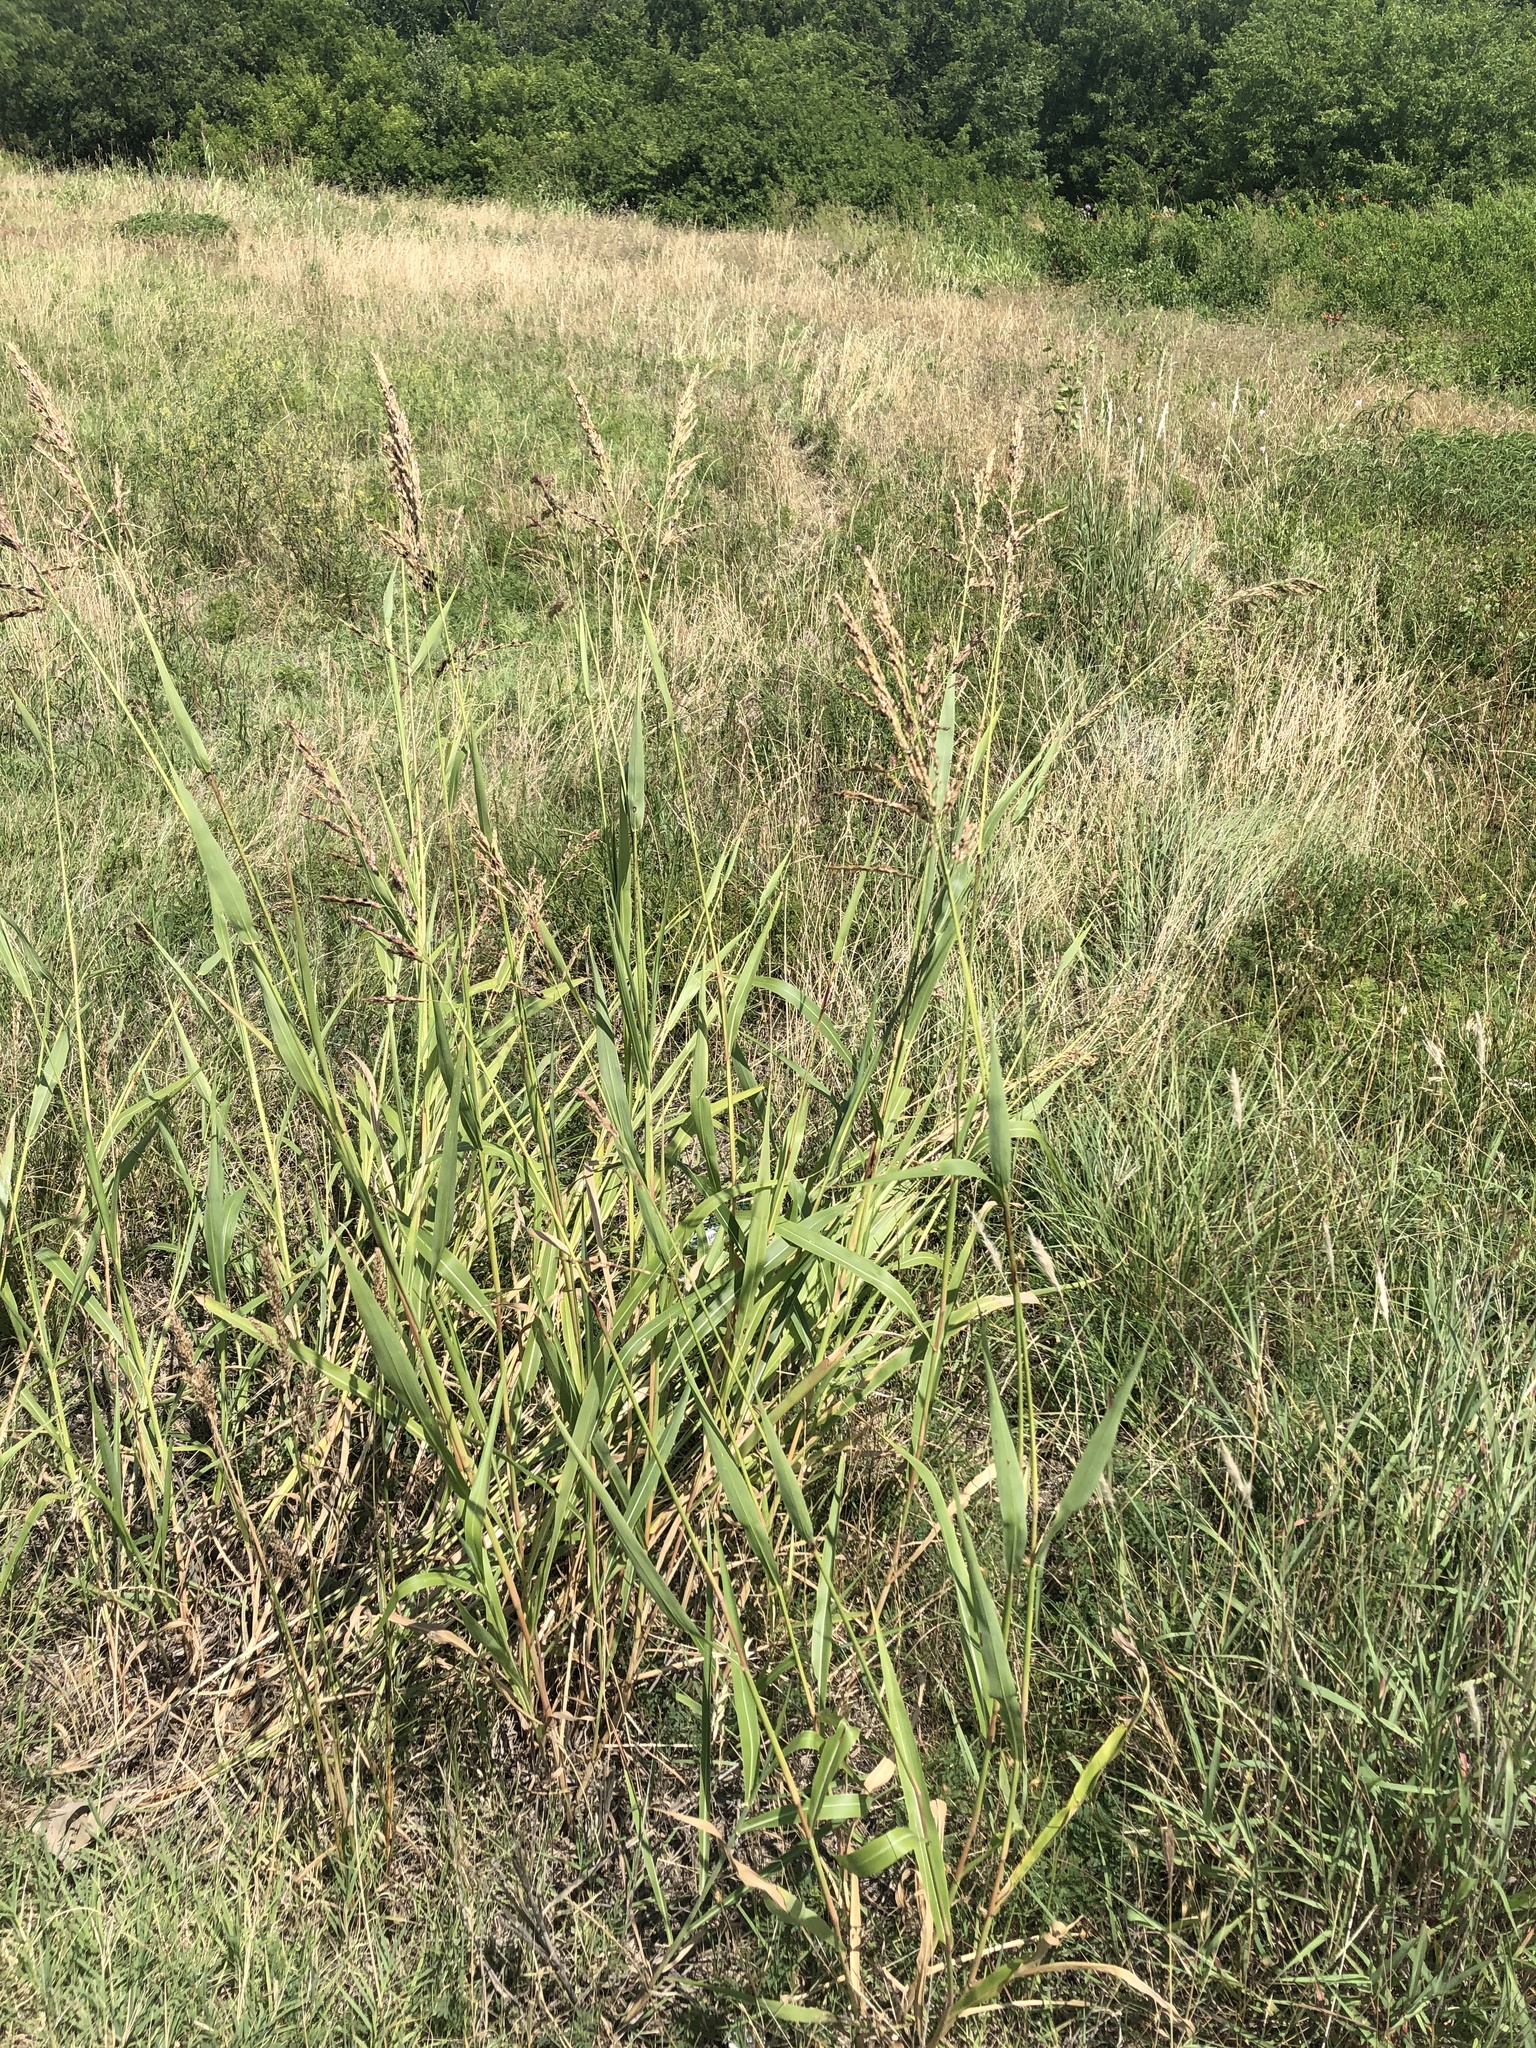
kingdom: Plantae
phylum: Tracheophyta
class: Liliopsida
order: Poales
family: Poaceae
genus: Sorghum
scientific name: Sorghum halepense
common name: Johnson-grass
